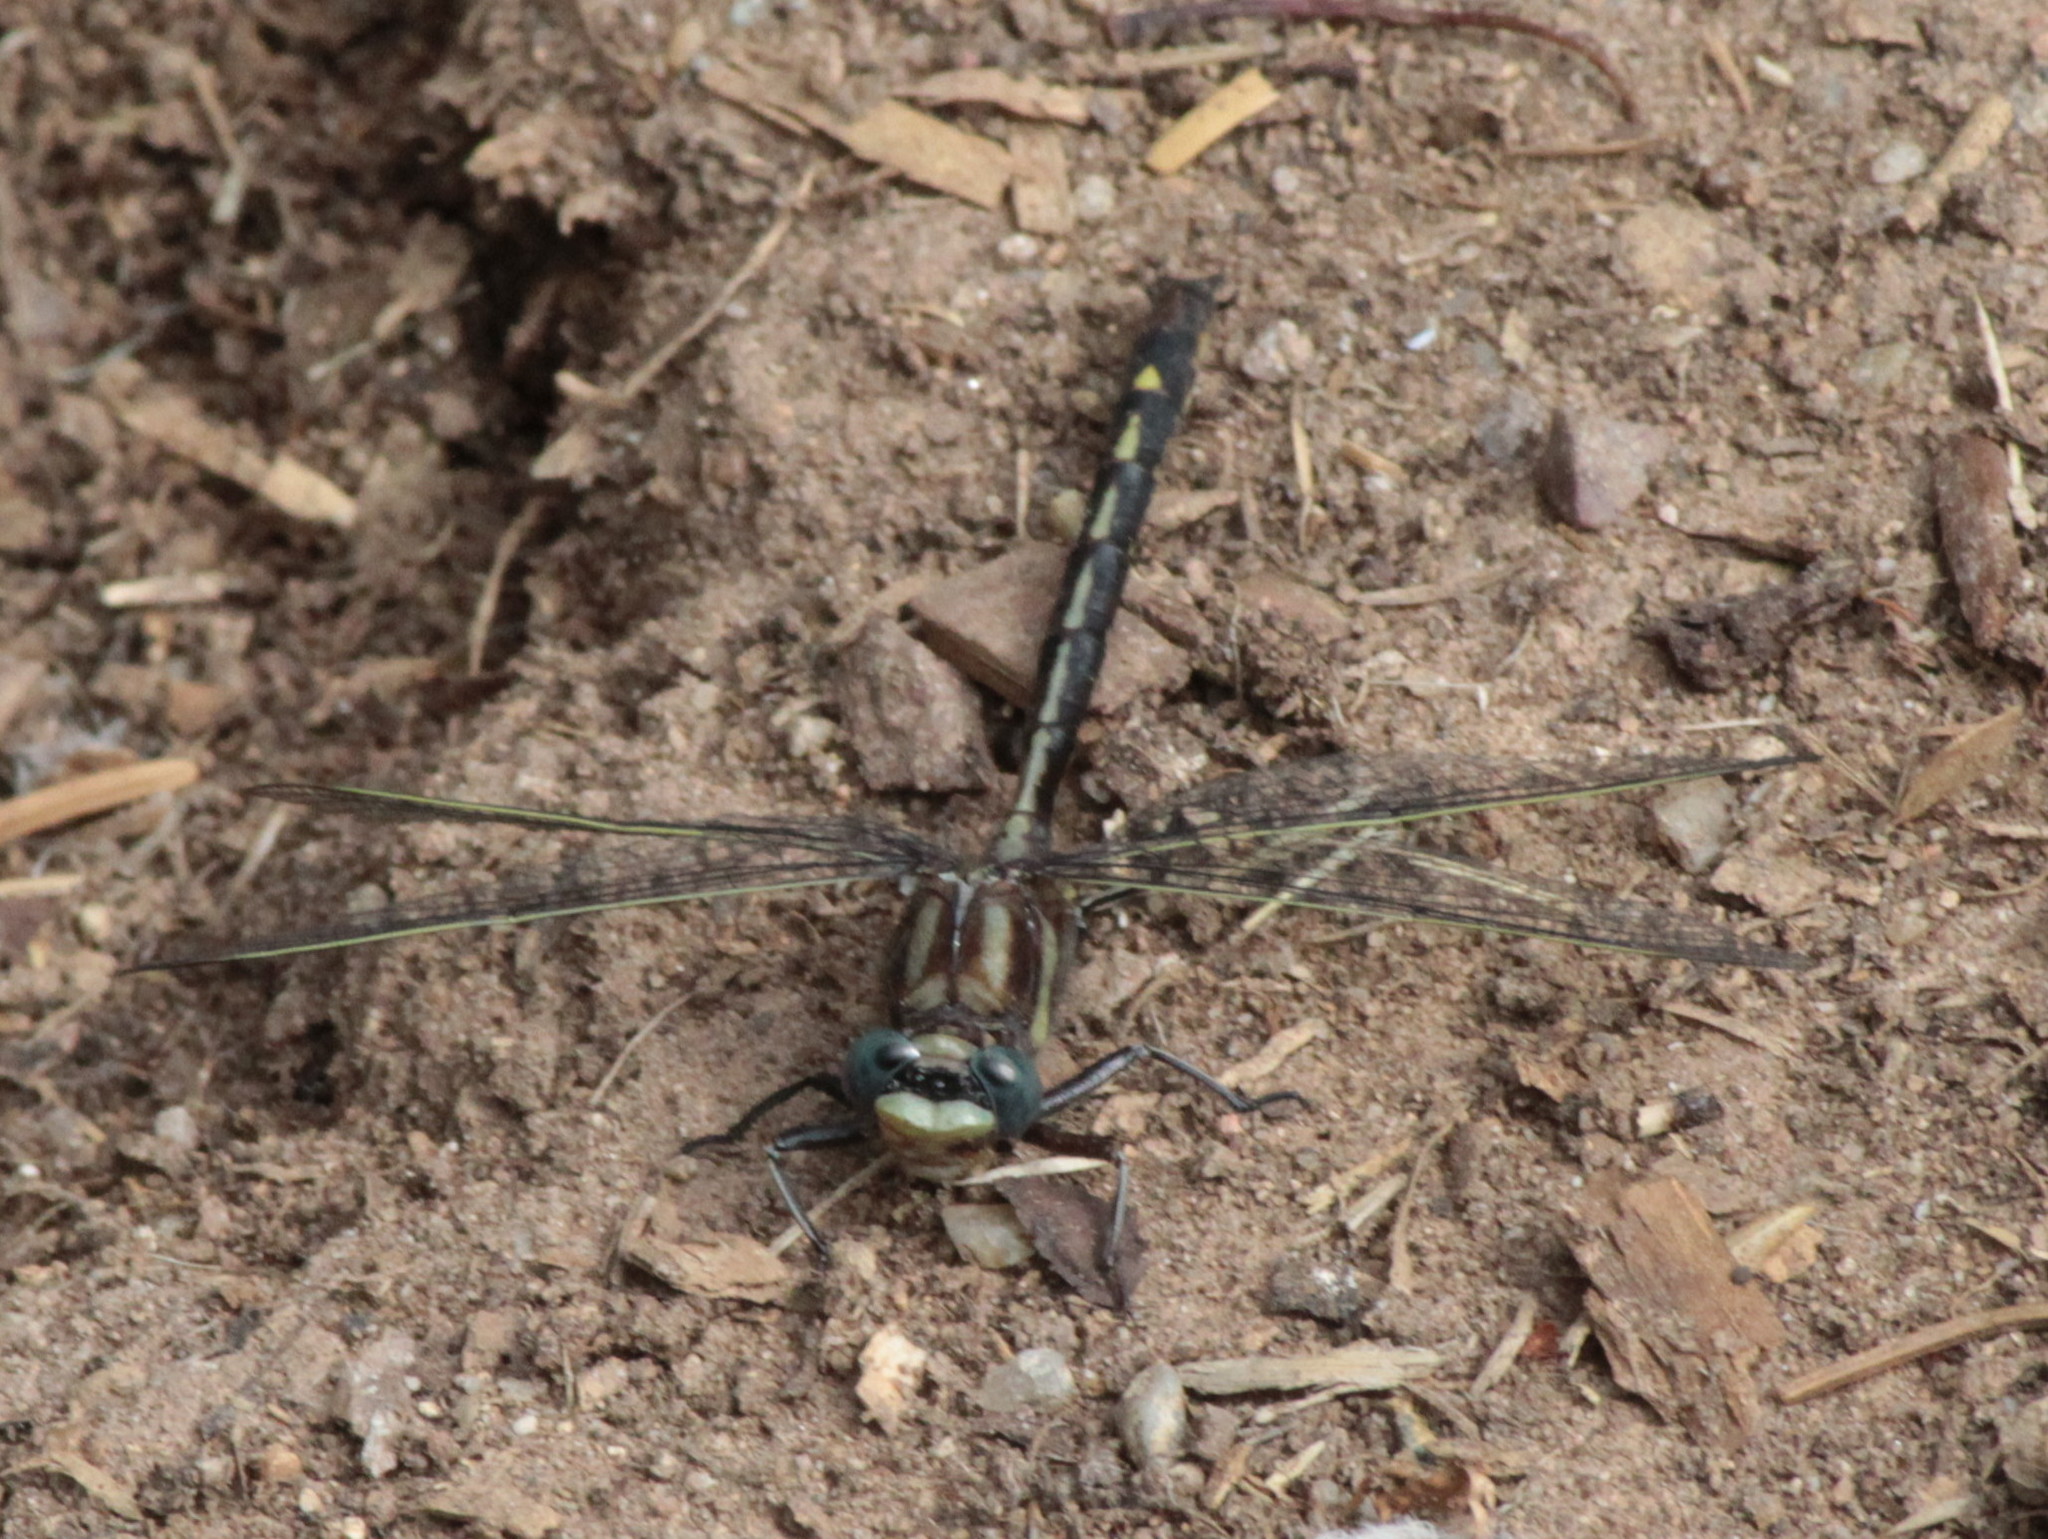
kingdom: Animalia
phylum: Arthropoda
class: Insecta
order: Odonata
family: Gomphidae
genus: Phanogomphus
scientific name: Phanogomphus spicatus
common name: Dusky clubtail
